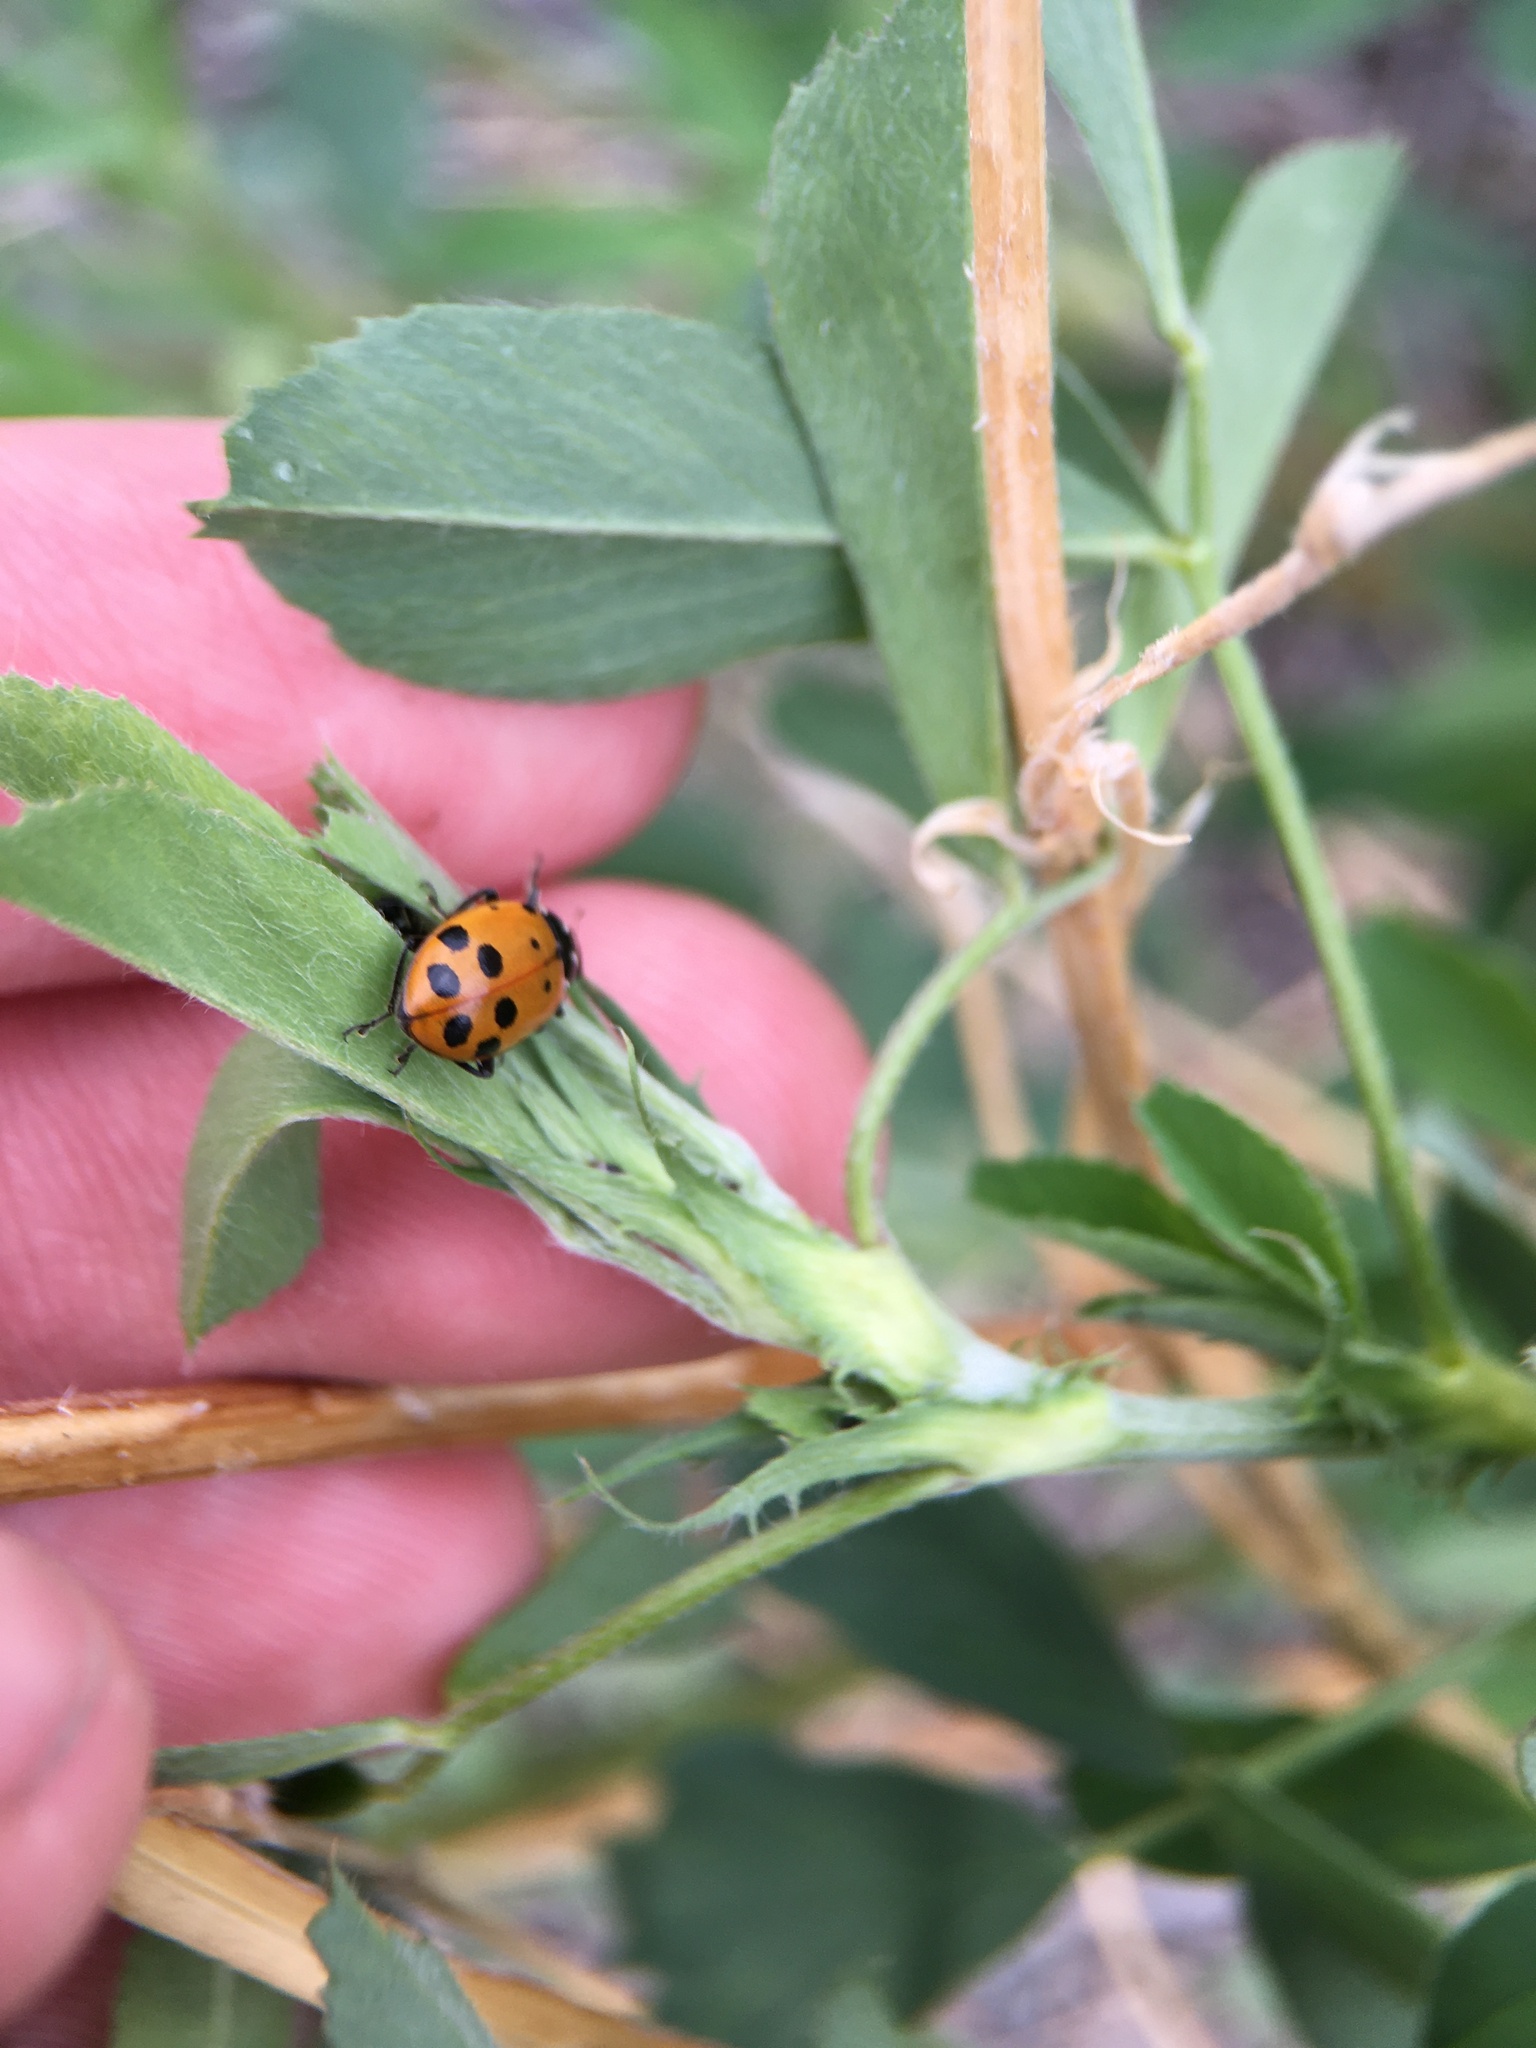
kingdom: Animalia
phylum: Arthropoda
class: Insecta
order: Coleoptera
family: Coccinellidae
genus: Hippodamia
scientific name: Hippodamia convergens
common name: Convergent lady beetle
